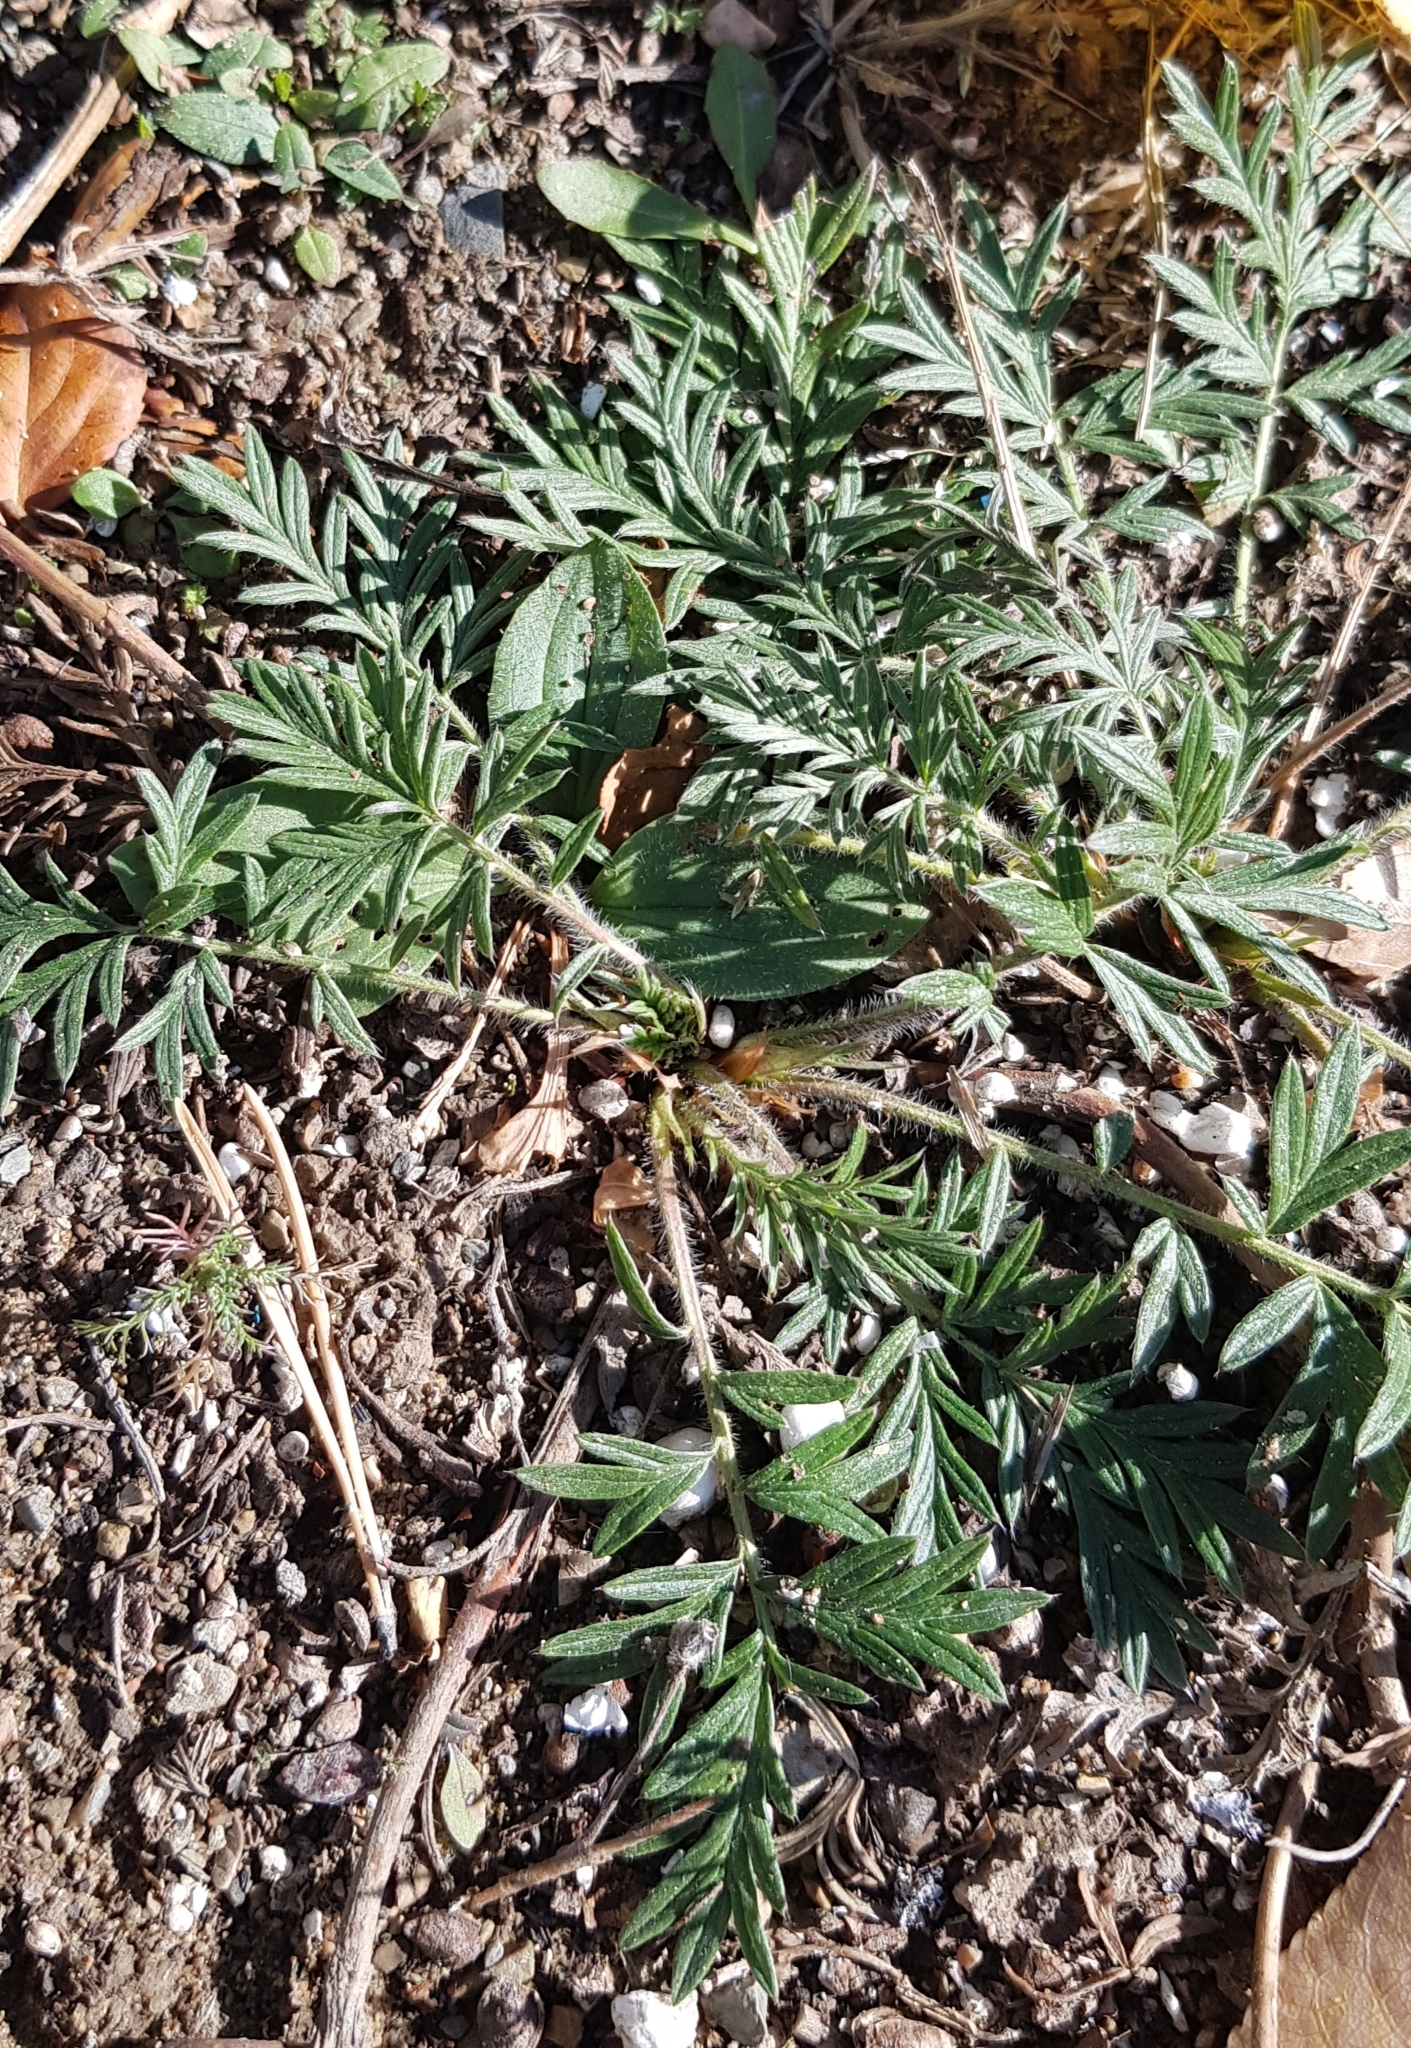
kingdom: Plantae
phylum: Tracheophyta
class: Magnoliopsida
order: Rosales
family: Rosaceae
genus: Potentilla
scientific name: Potentilla tergemina
